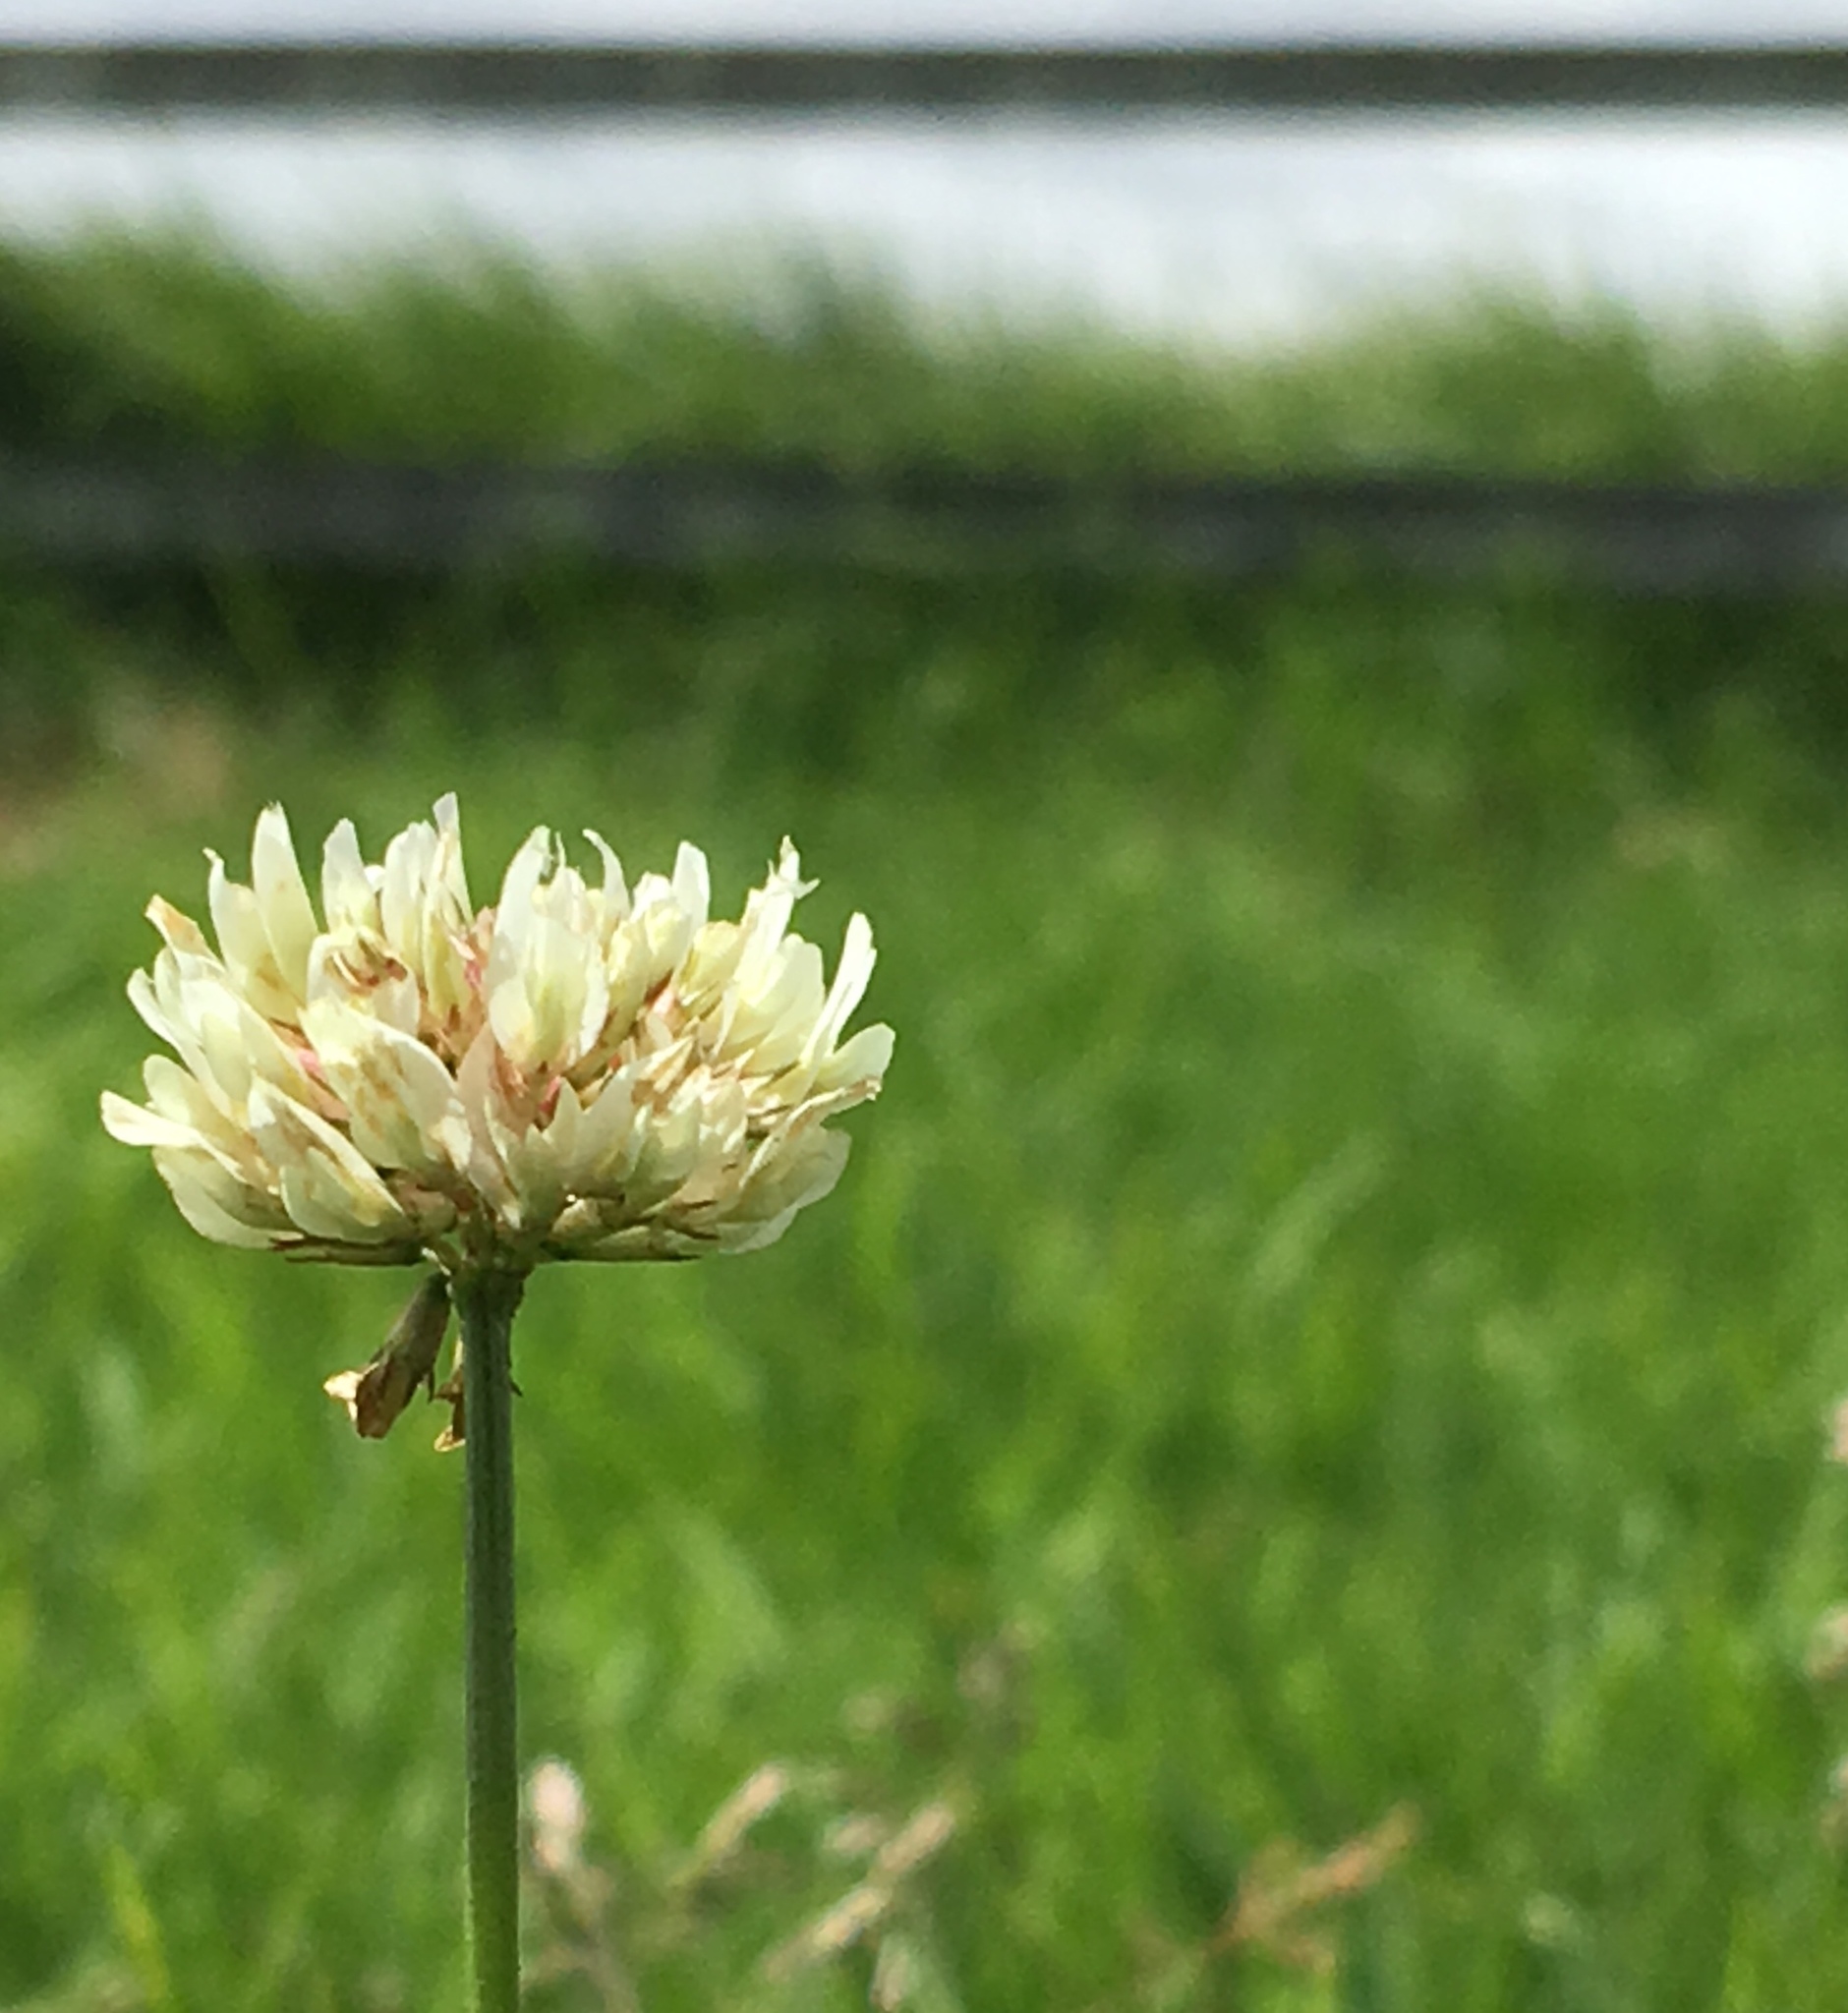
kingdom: Plantae
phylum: Tracheophyta
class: Magnoliopsida
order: Fabales
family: Fabaceae
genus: Trifolium
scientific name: Trifolium repens
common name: White clover
